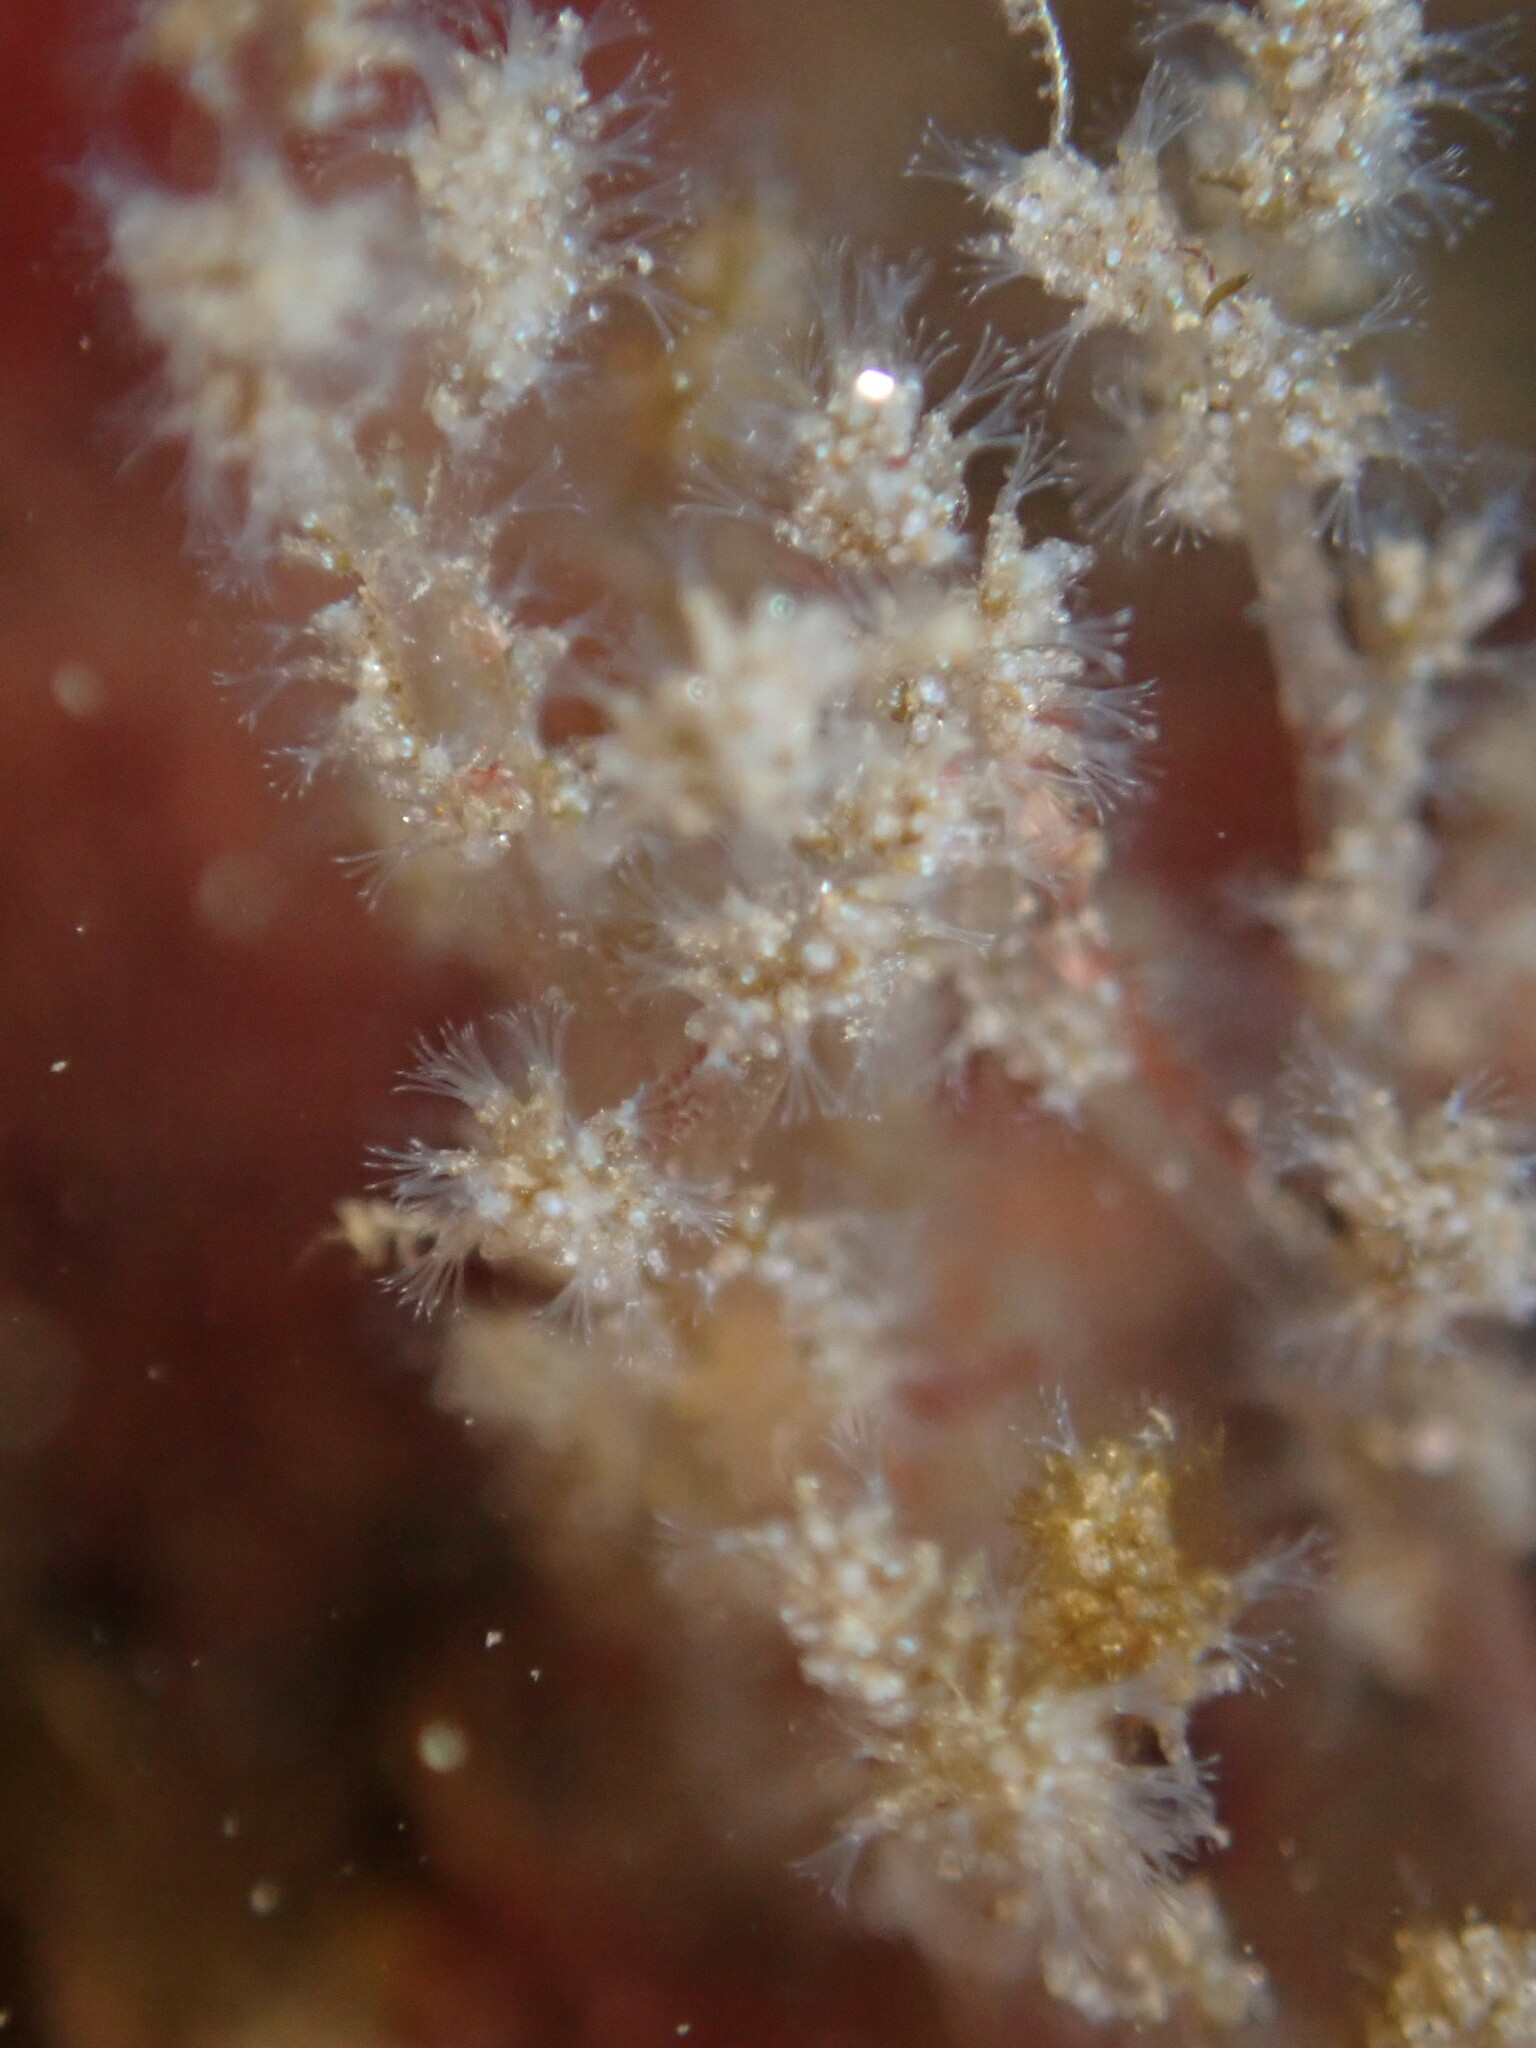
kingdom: Animalia
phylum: Bryozoa
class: Gymnolaemata
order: Ctenostomatida
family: Vesiculariidae
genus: Amathia
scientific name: Amathia verticillata
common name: Whorled zoobotryon
